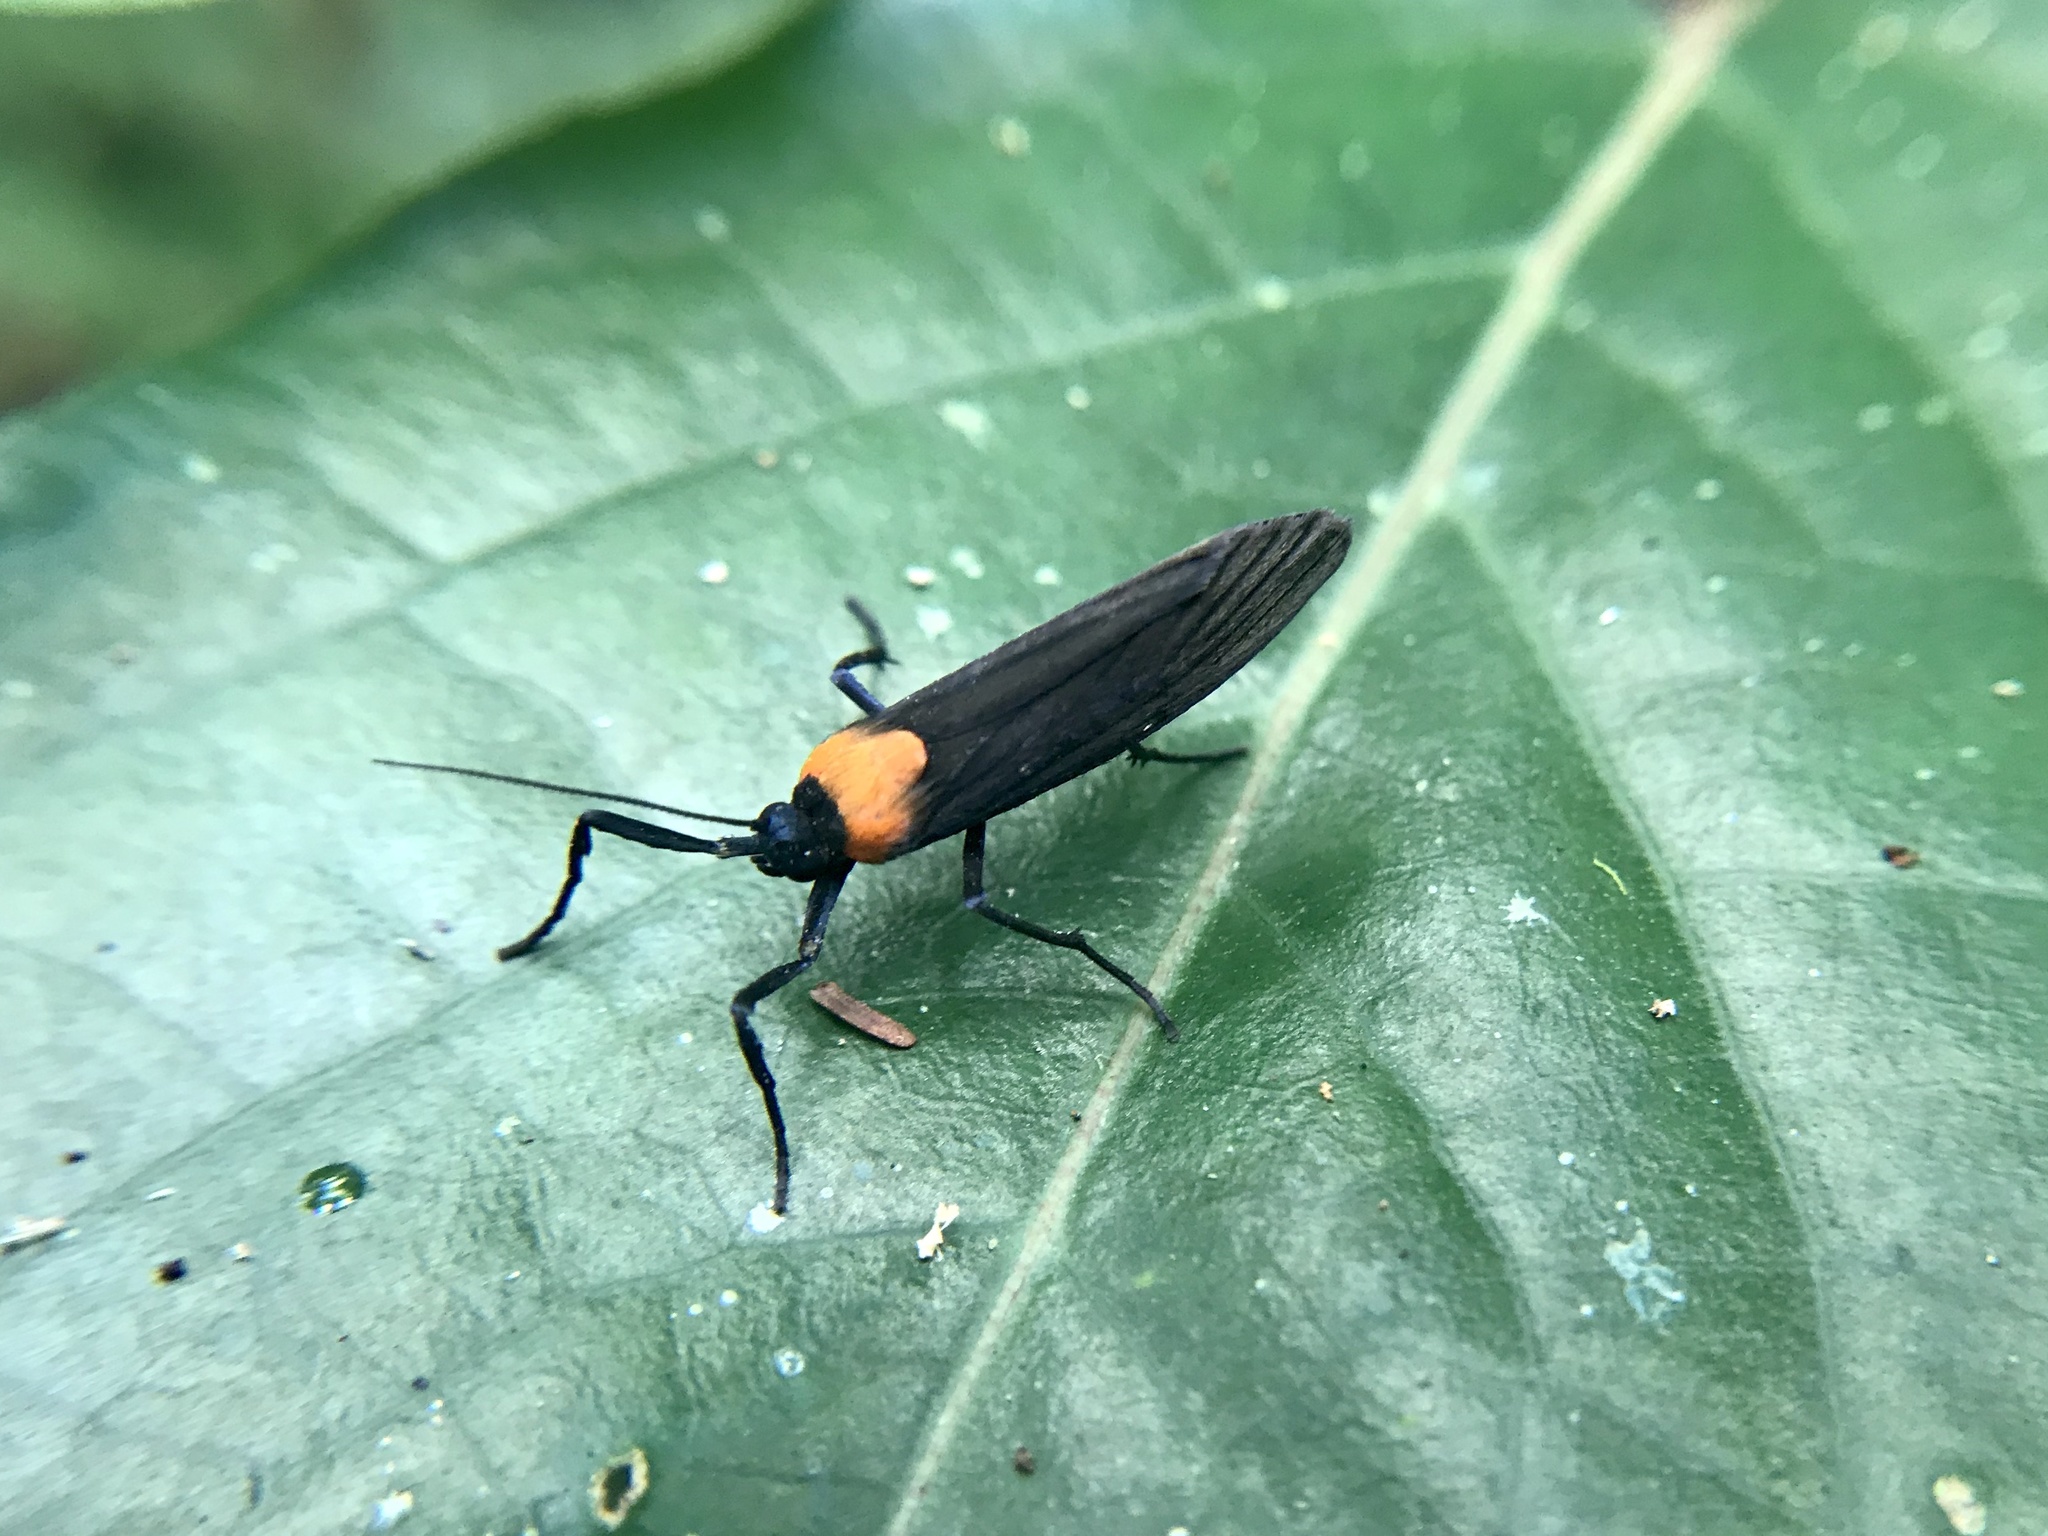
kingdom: Animalia
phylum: Arthropoda
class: Insecta
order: Lepidoptera
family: Erebidae
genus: Balbura
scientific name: Balbura intervenata
